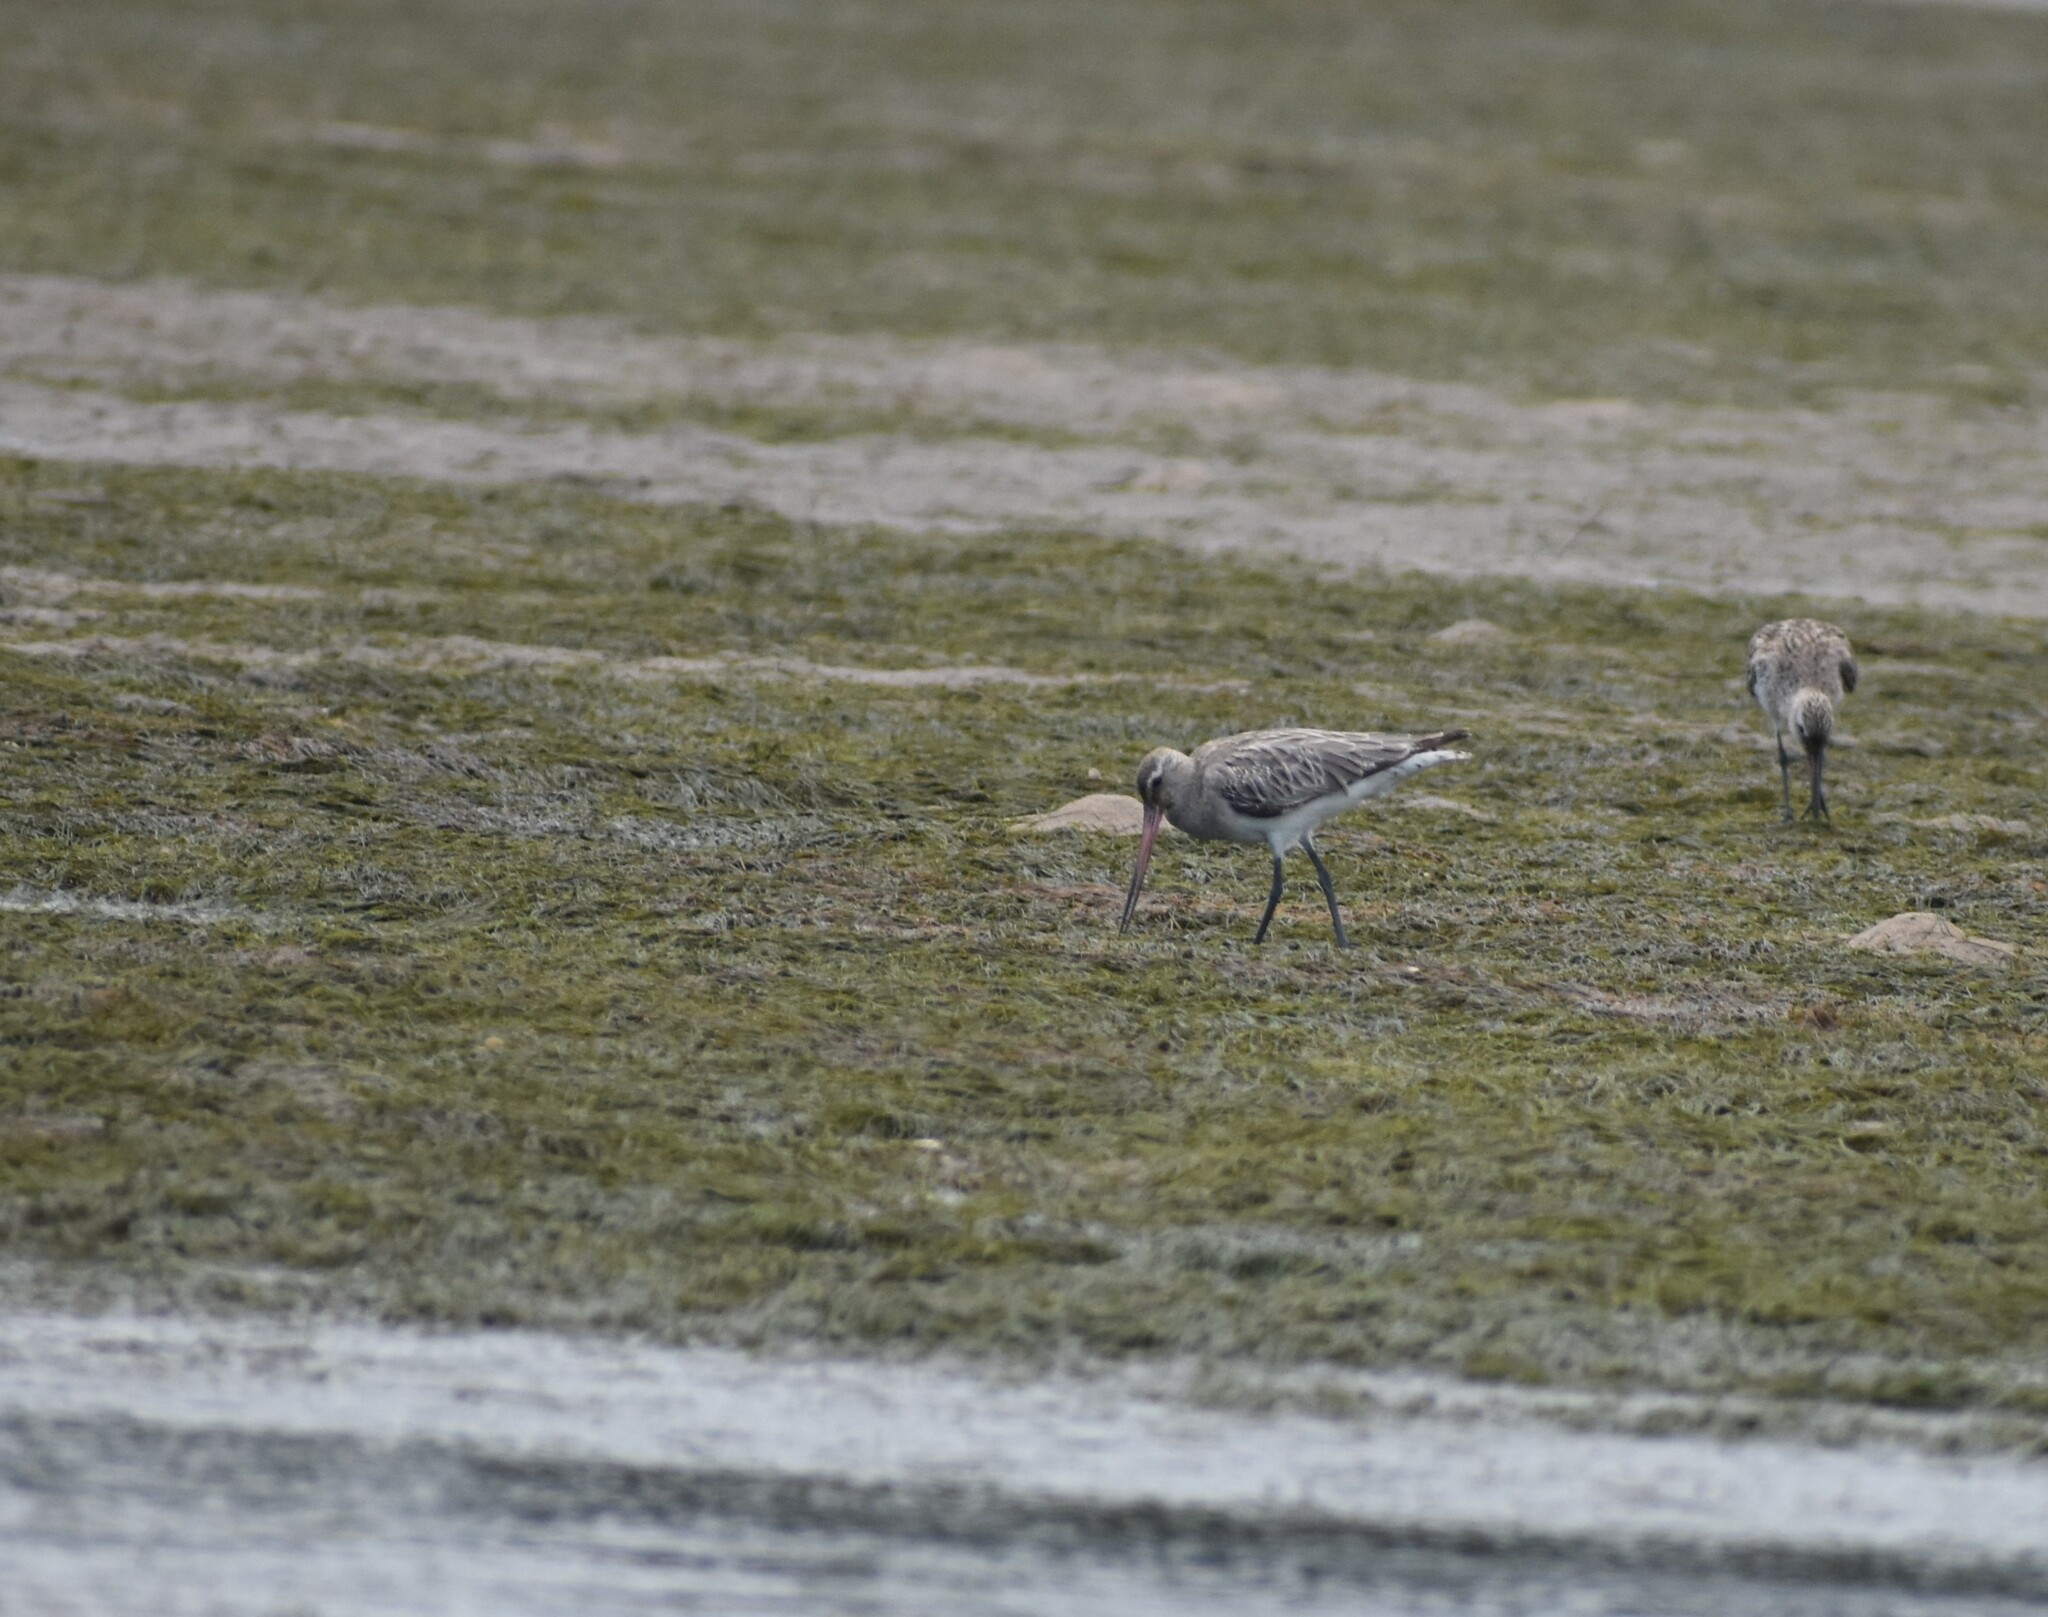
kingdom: Animalia
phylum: Chordata
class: Aves
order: Charadriiformes
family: Scolopacidae
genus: Limosa
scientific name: Limosa lapponica
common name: Bar-tailed godwit
